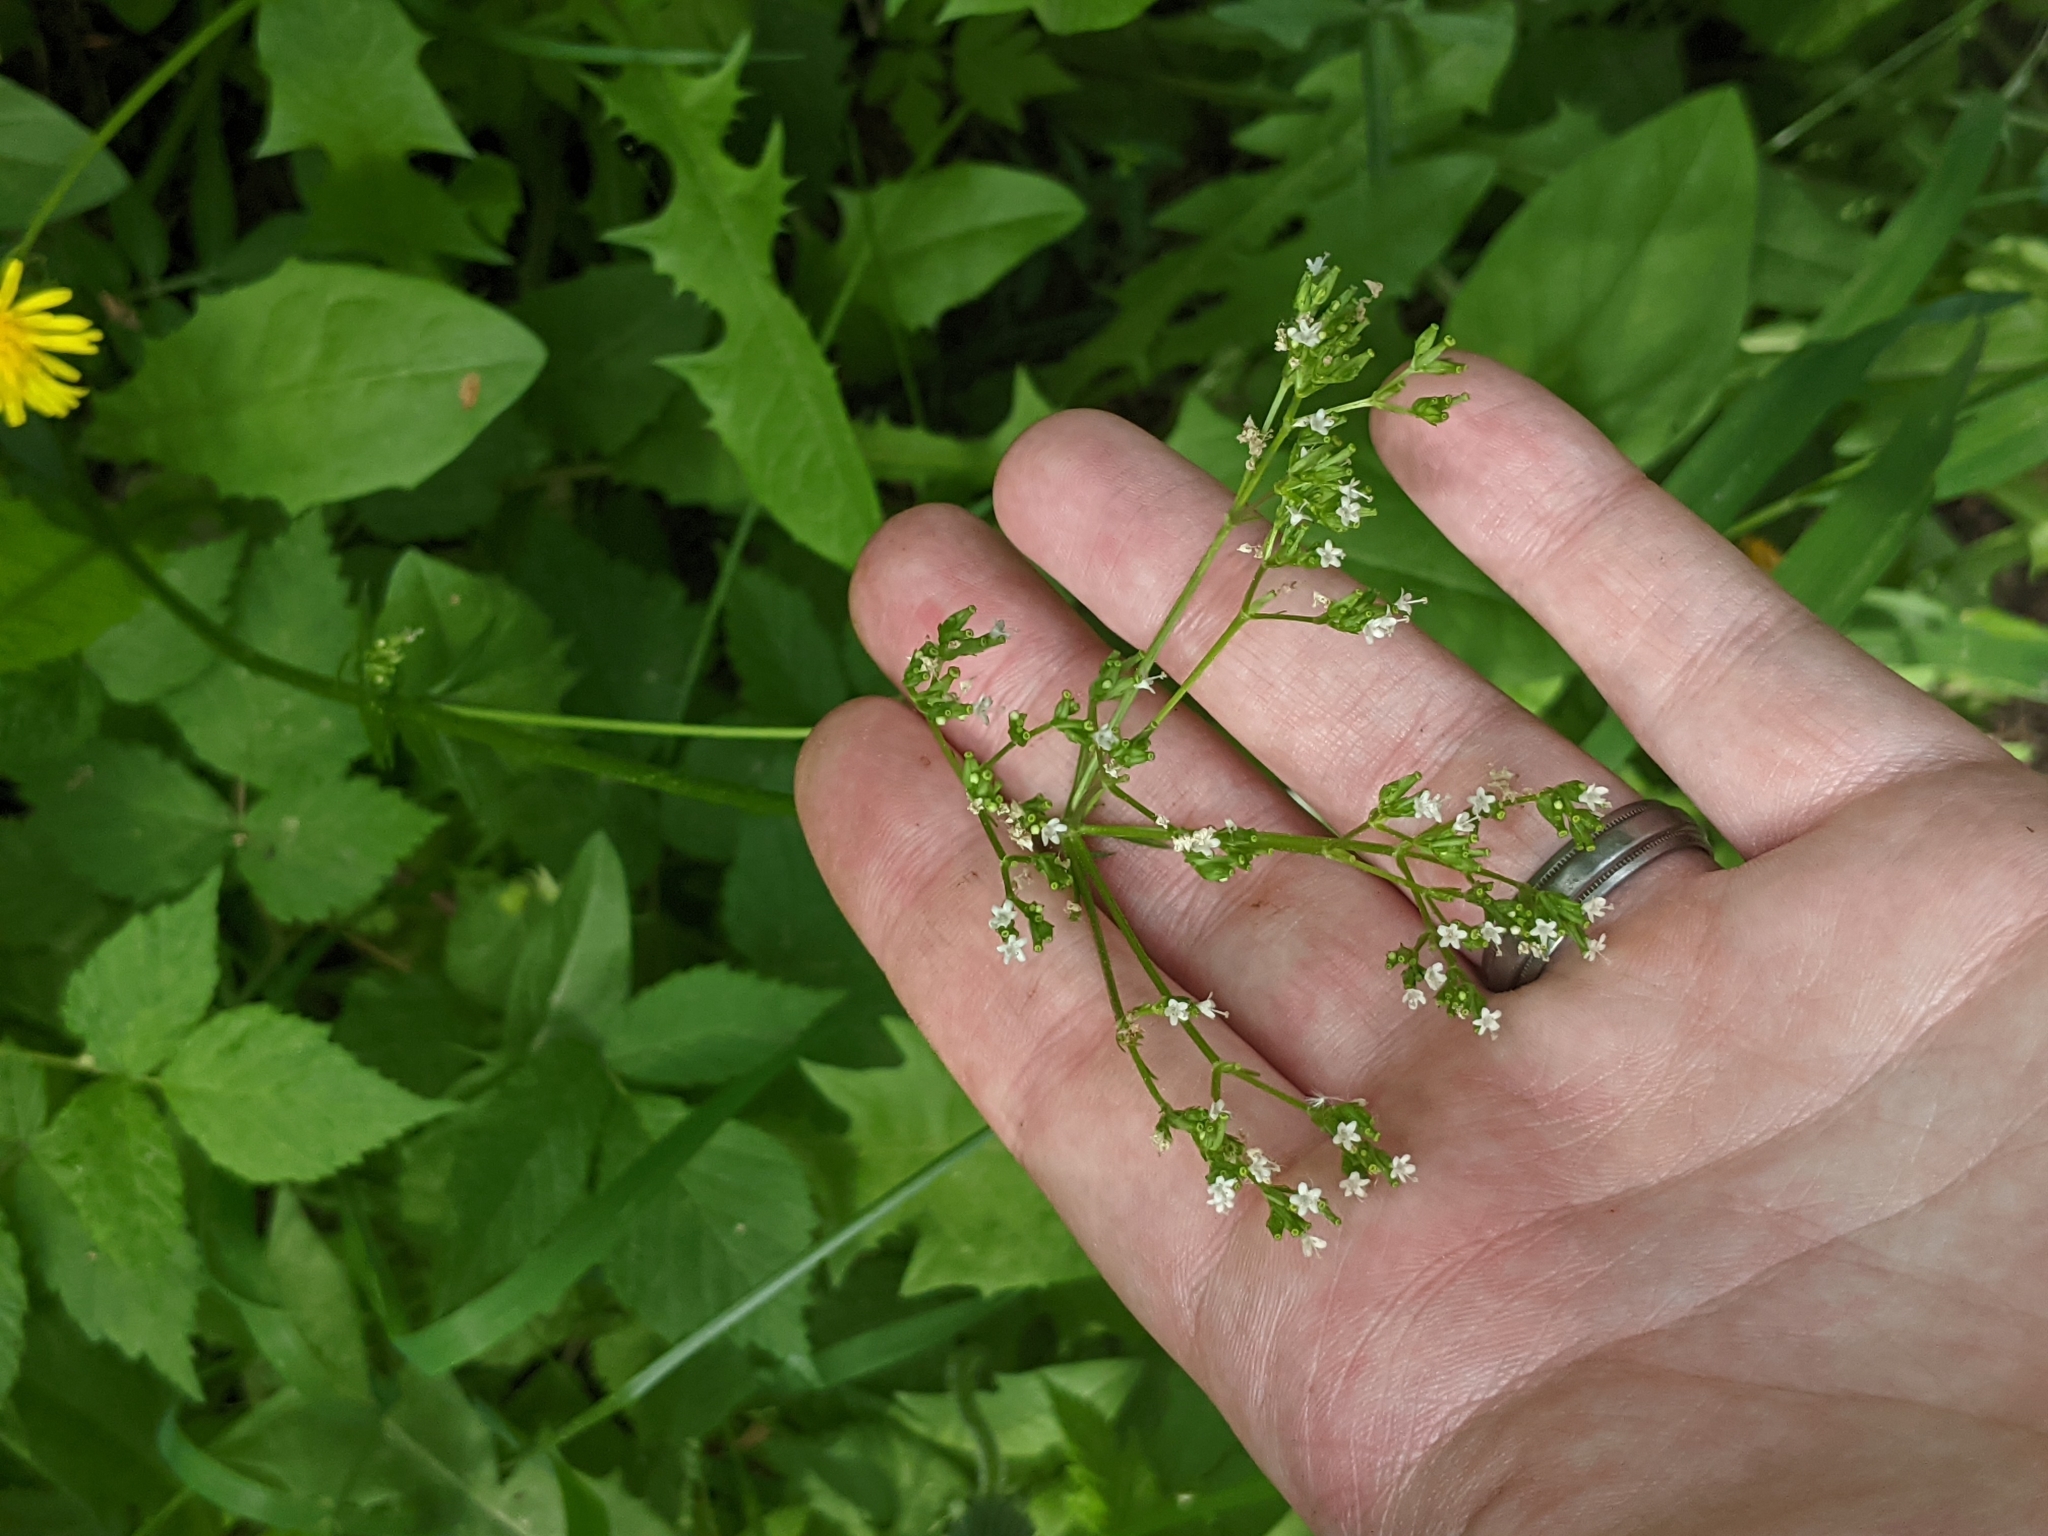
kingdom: Plantae
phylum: Tracheophyta
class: Magnoliopsida
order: Dipsacales
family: Caprifoliaceae
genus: Valeriana
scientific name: Valeriana occidentalis
